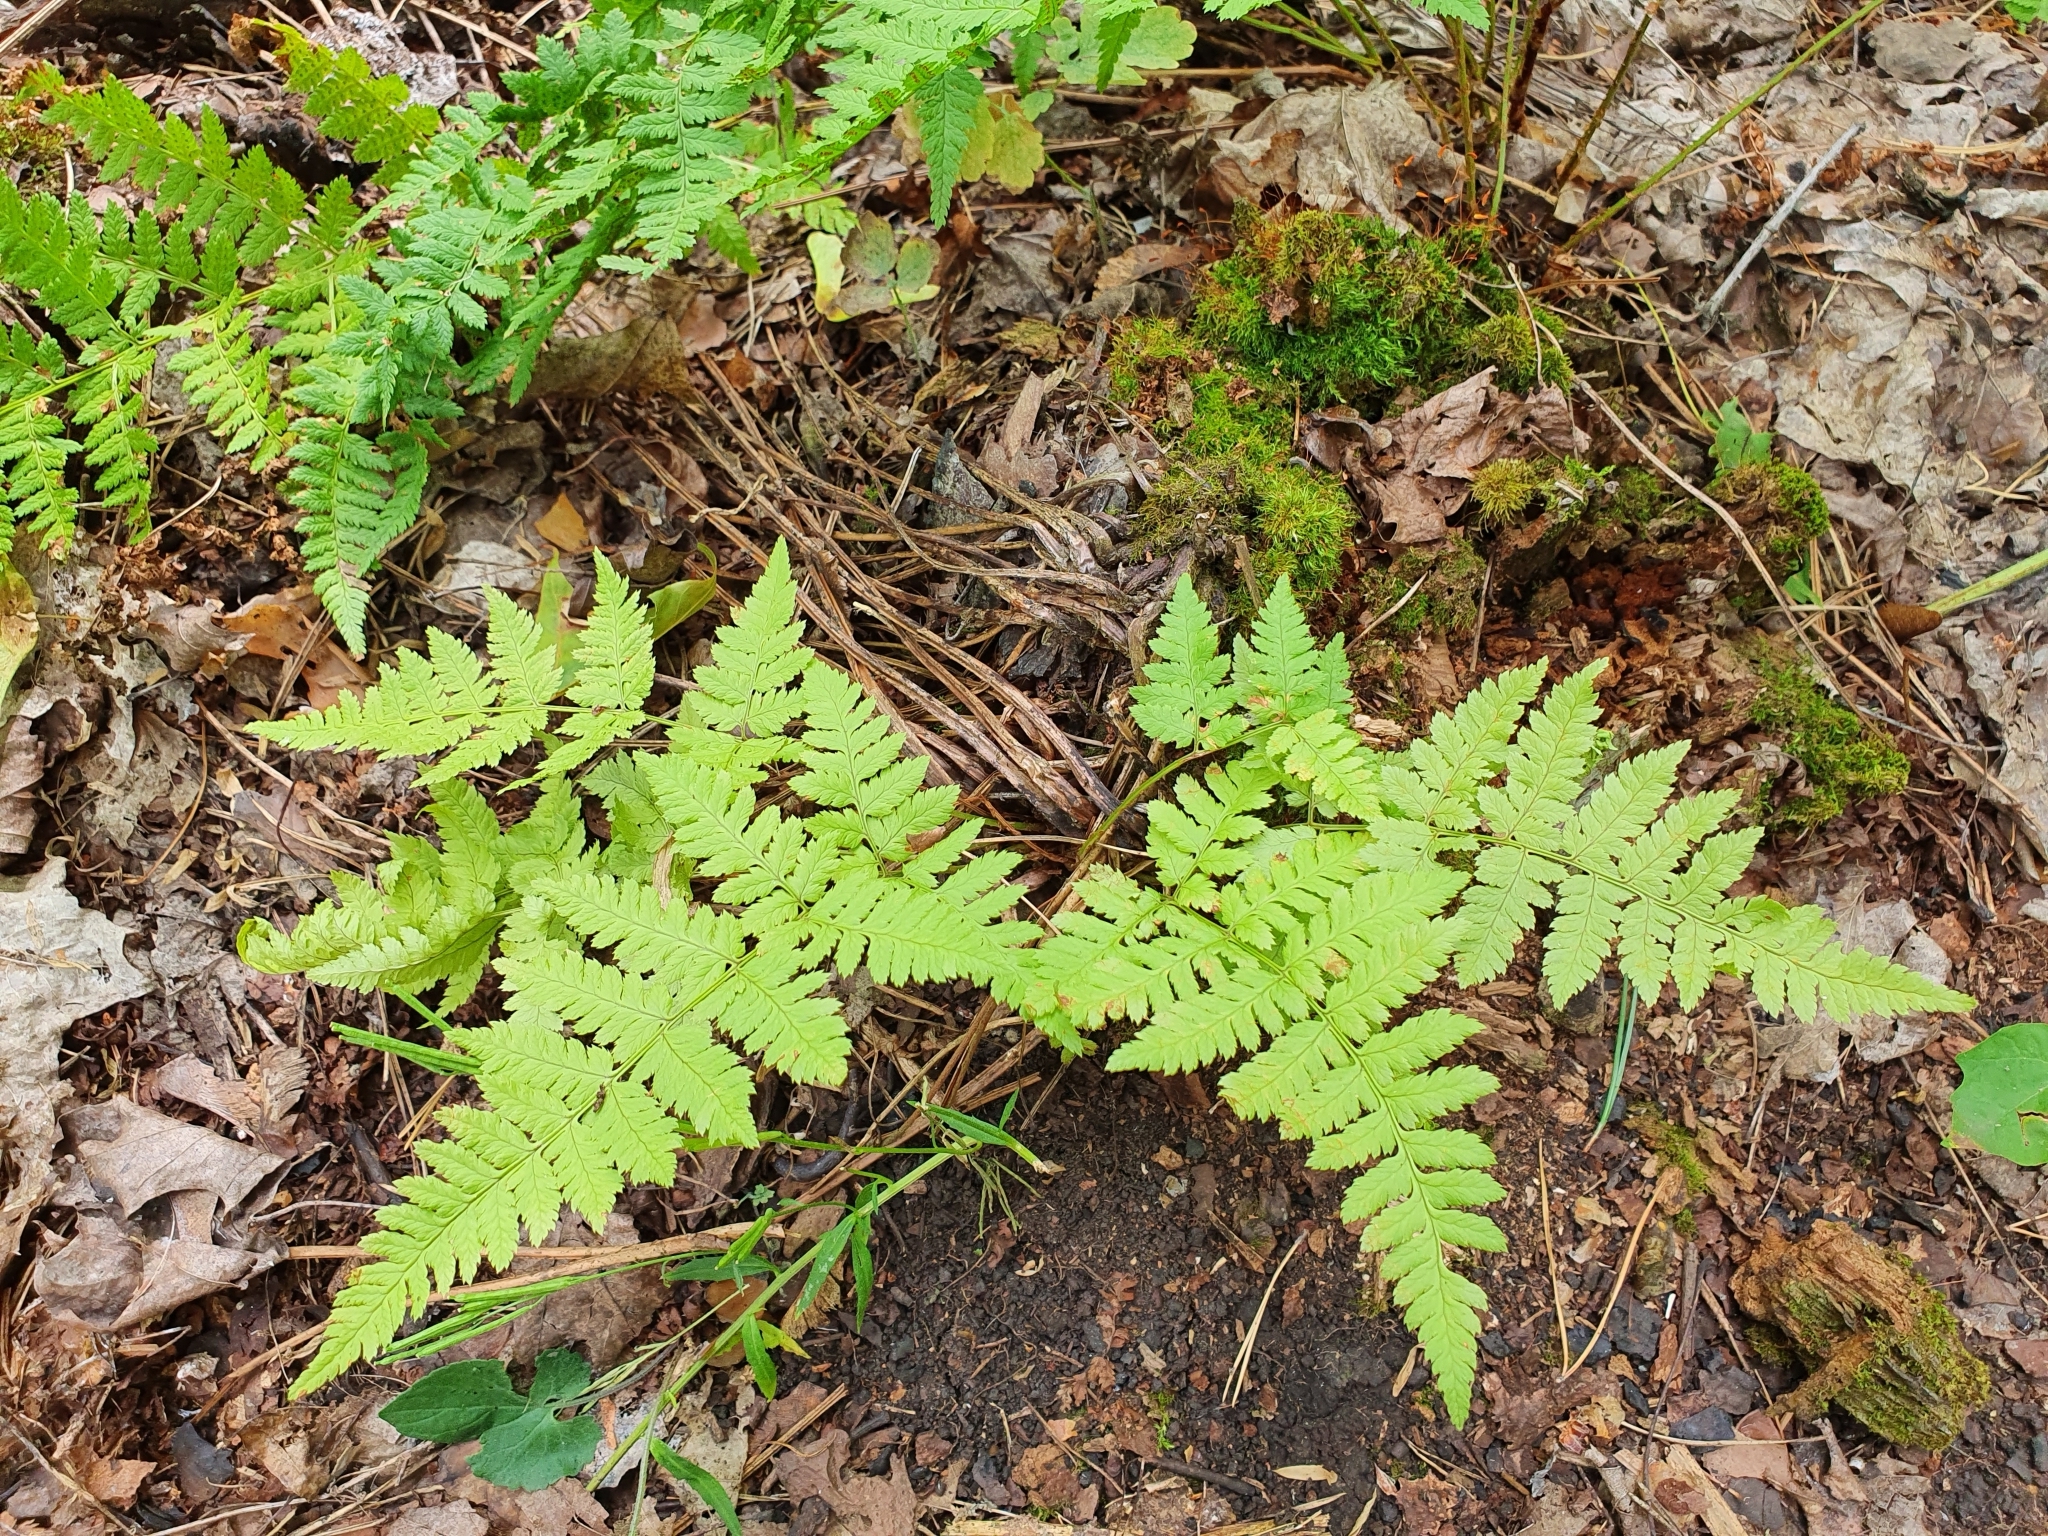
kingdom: Plantae
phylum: Tracheophyta
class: Polypodiopsida
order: Polypodiales
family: Dryopteridaceae
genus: Dryopteris
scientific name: Dryopteris carthusiana
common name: Narrow buckler-fern
